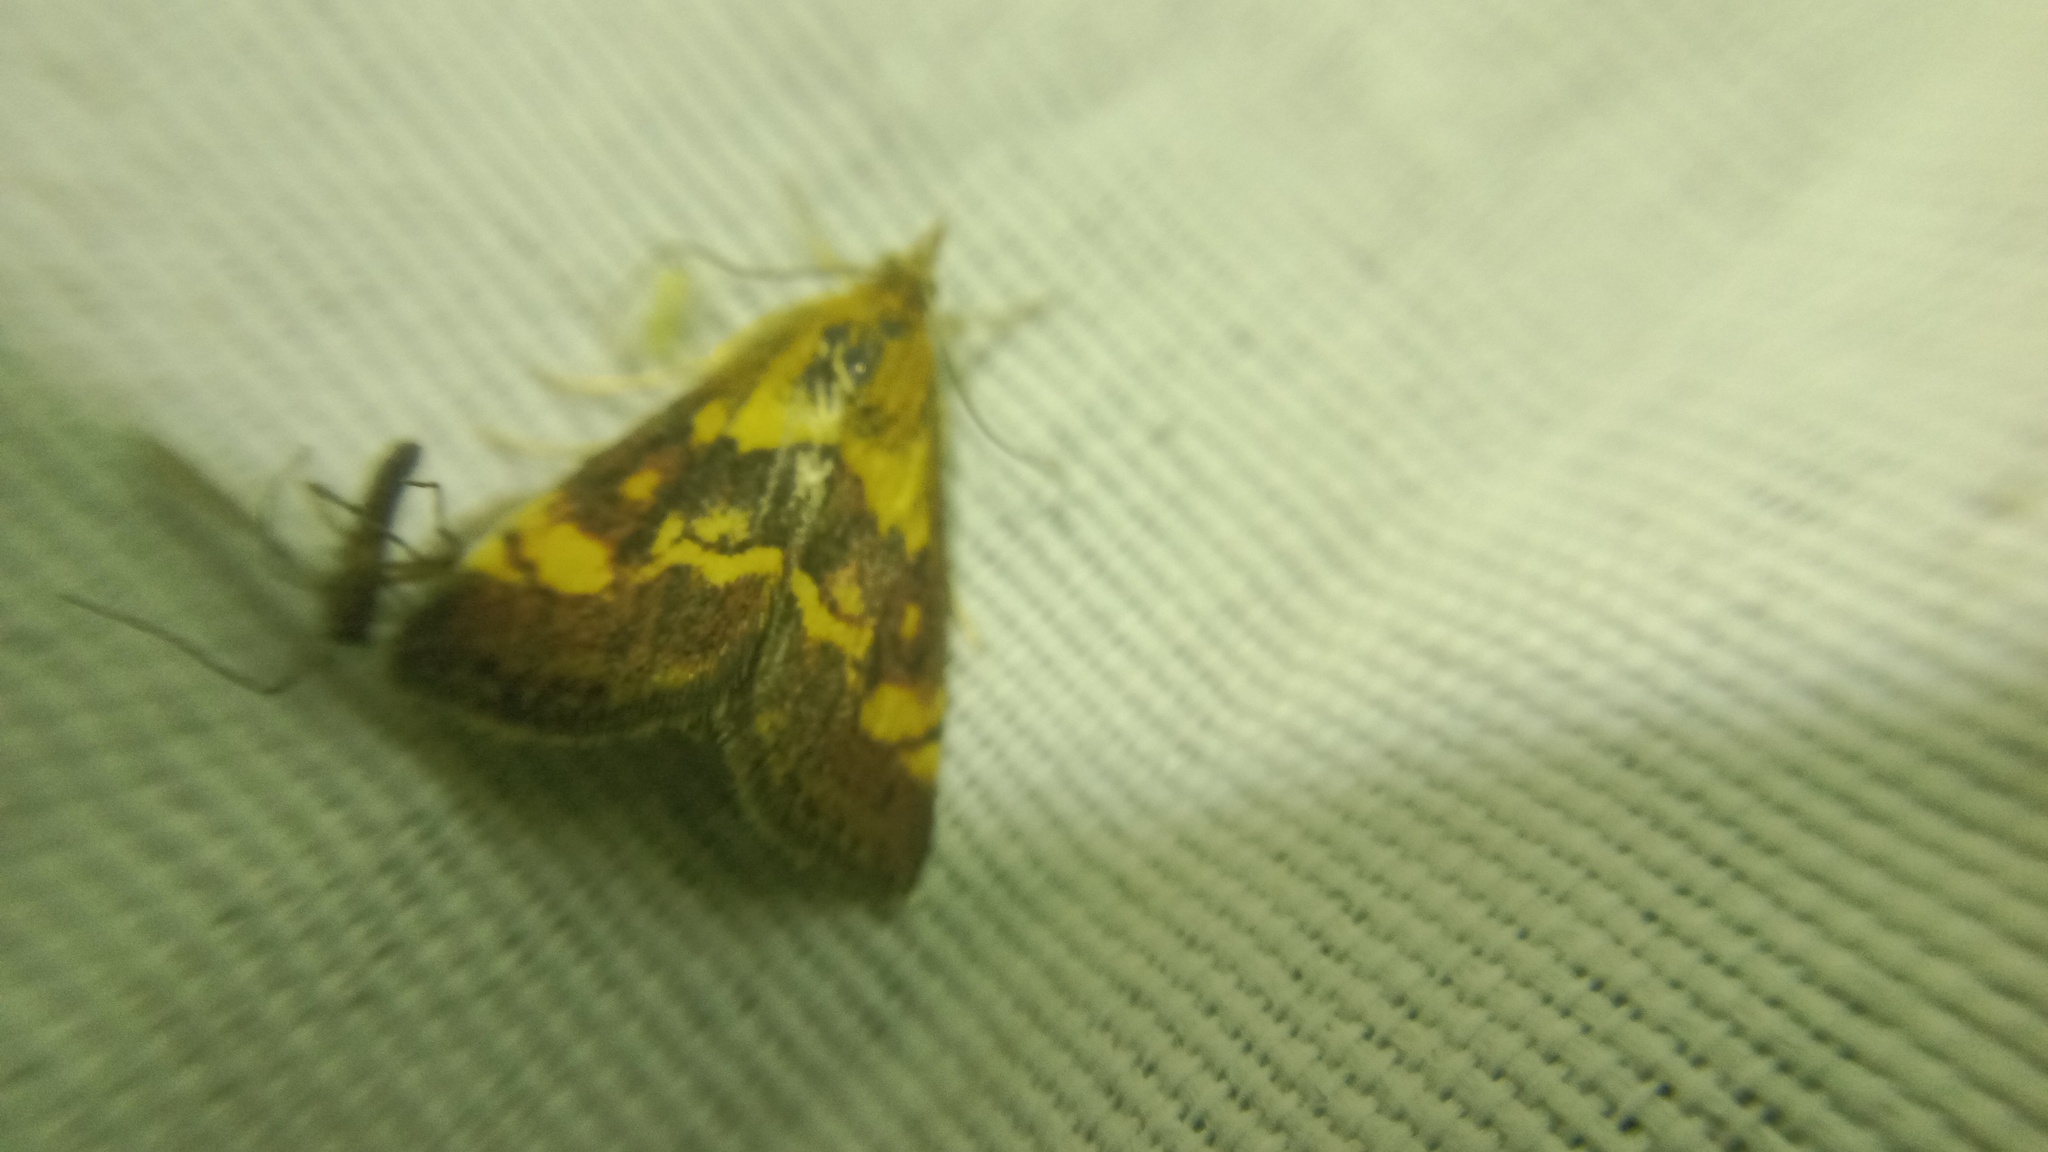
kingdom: Animalia
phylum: Arthropoda
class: Insecta
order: Lepidoptera
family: Crambidae
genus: Pyrausta
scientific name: Pyrausta aurata
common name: Small purple & gold
